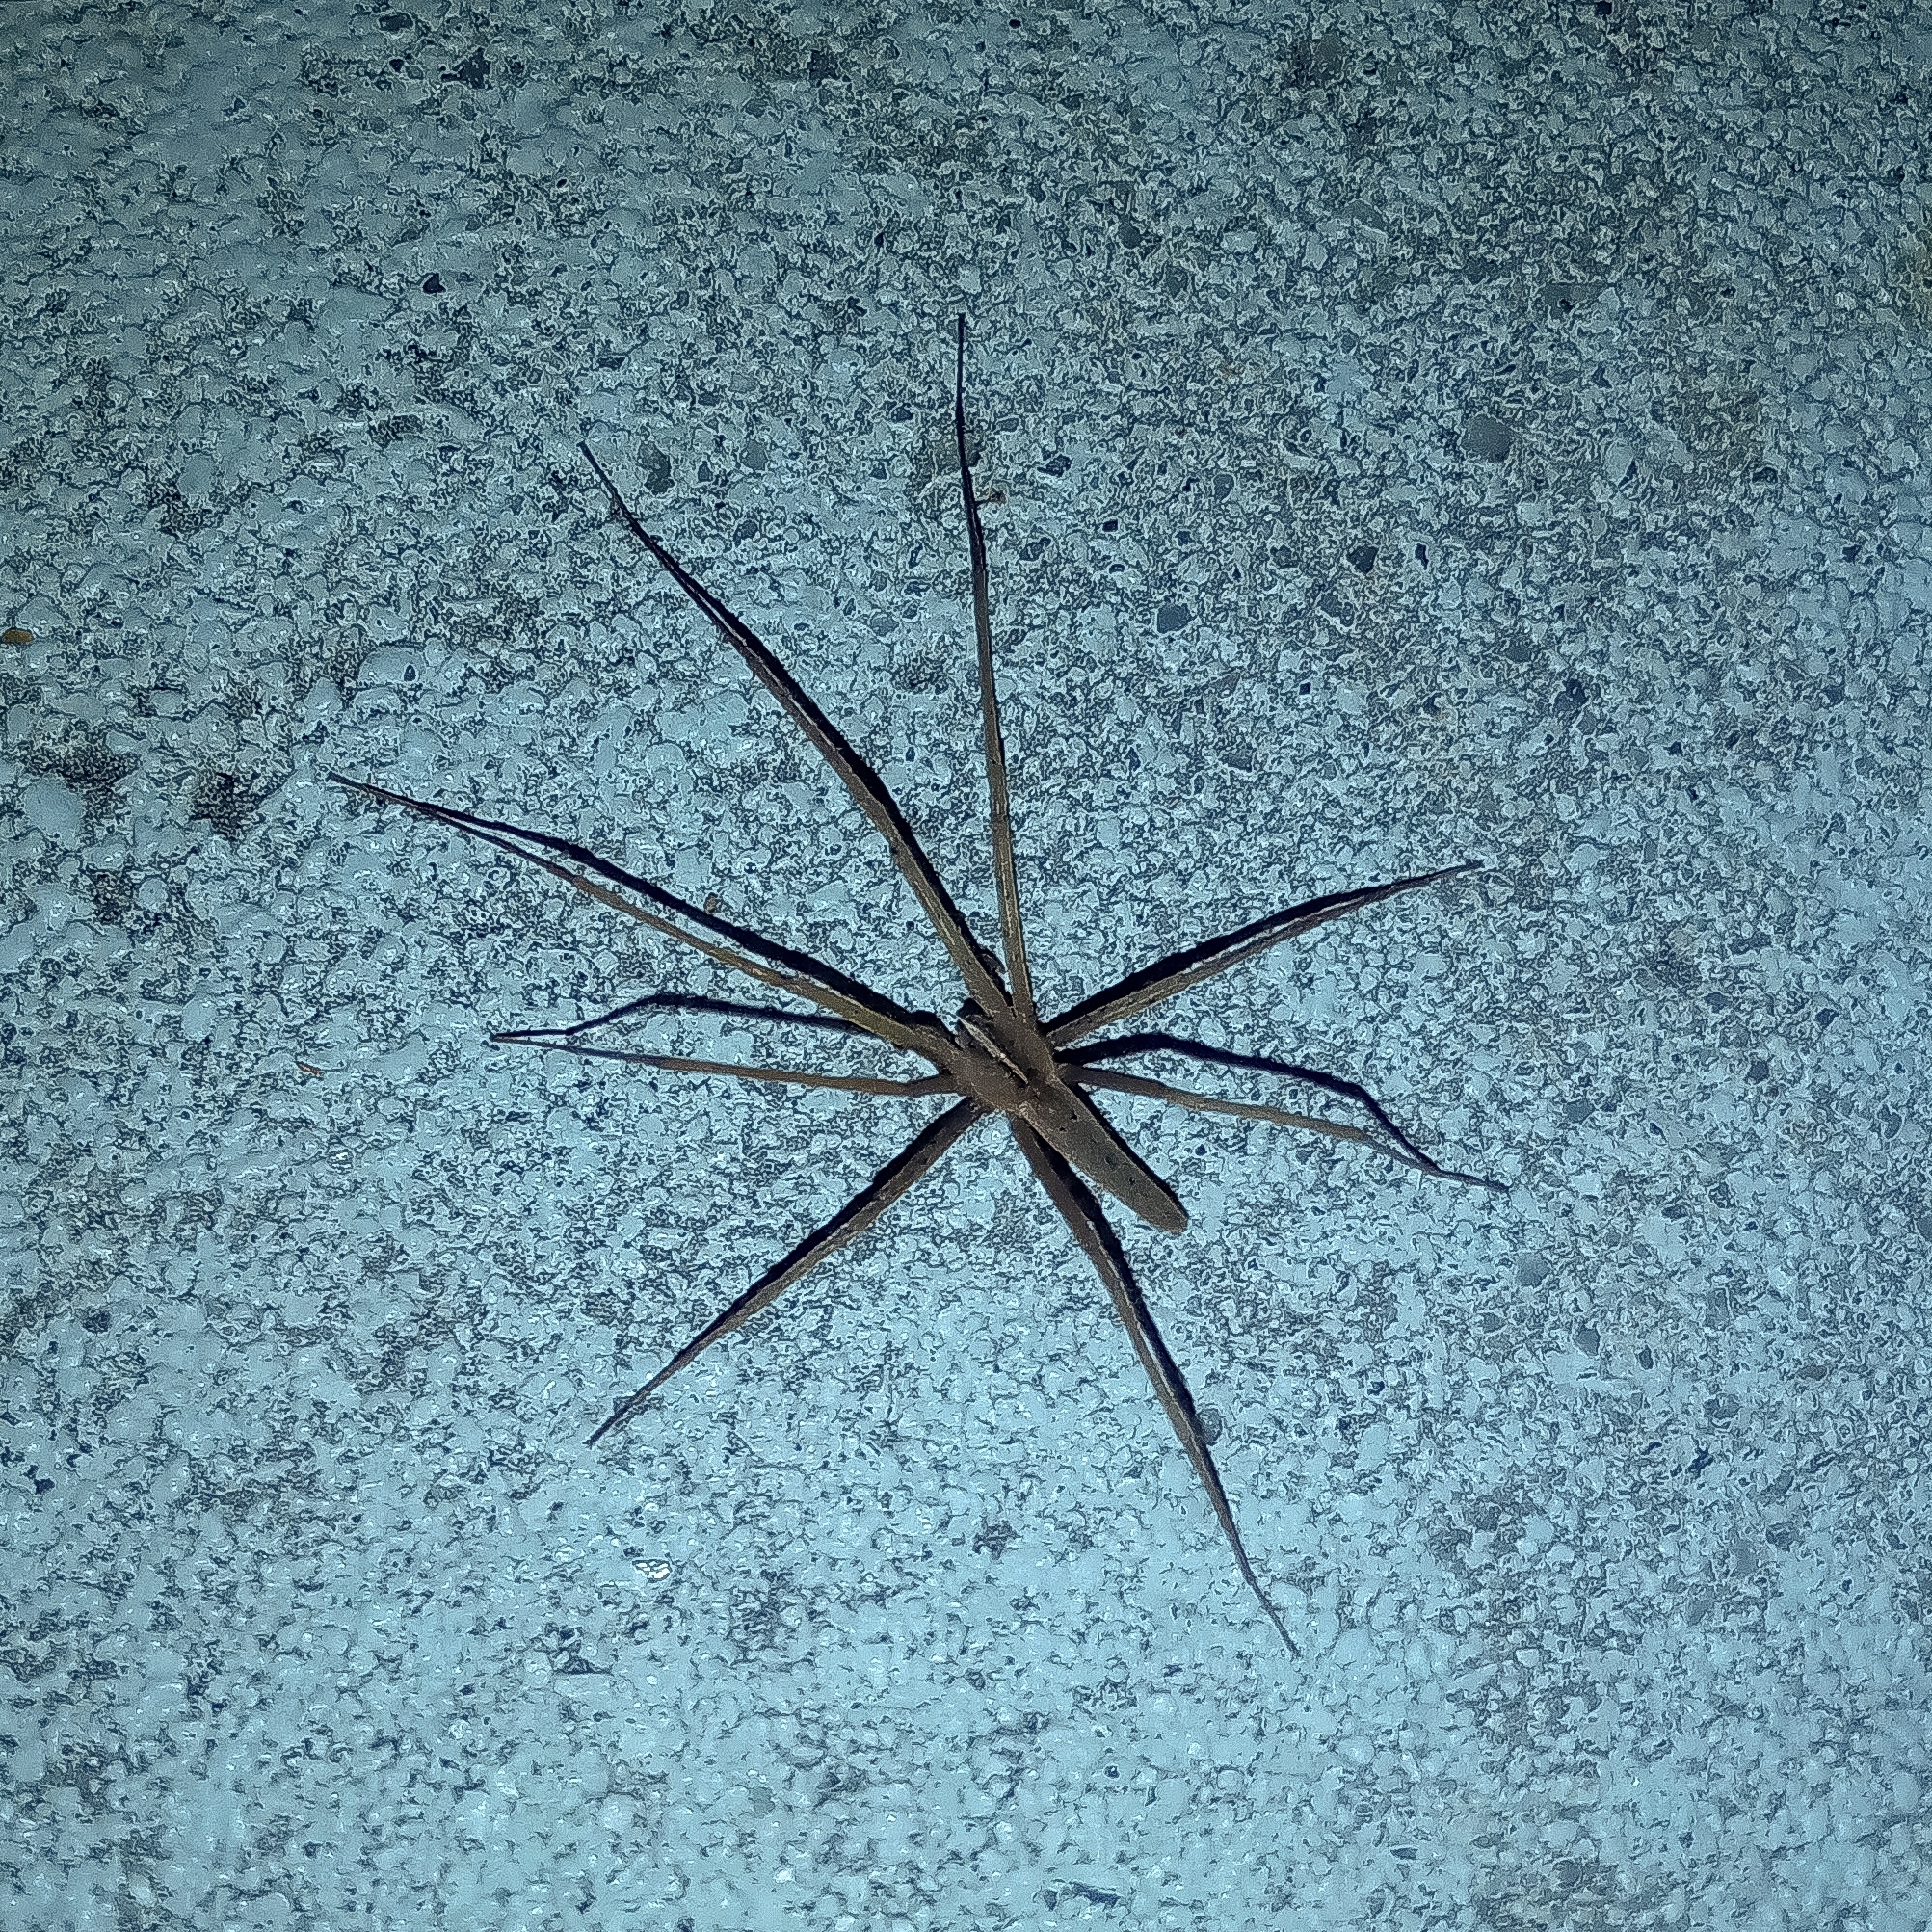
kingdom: Animalia
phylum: Arthropoda
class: Arachnida
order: Araneae
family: Pisauridae
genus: Pisaurina
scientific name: Pisaurina dubia
